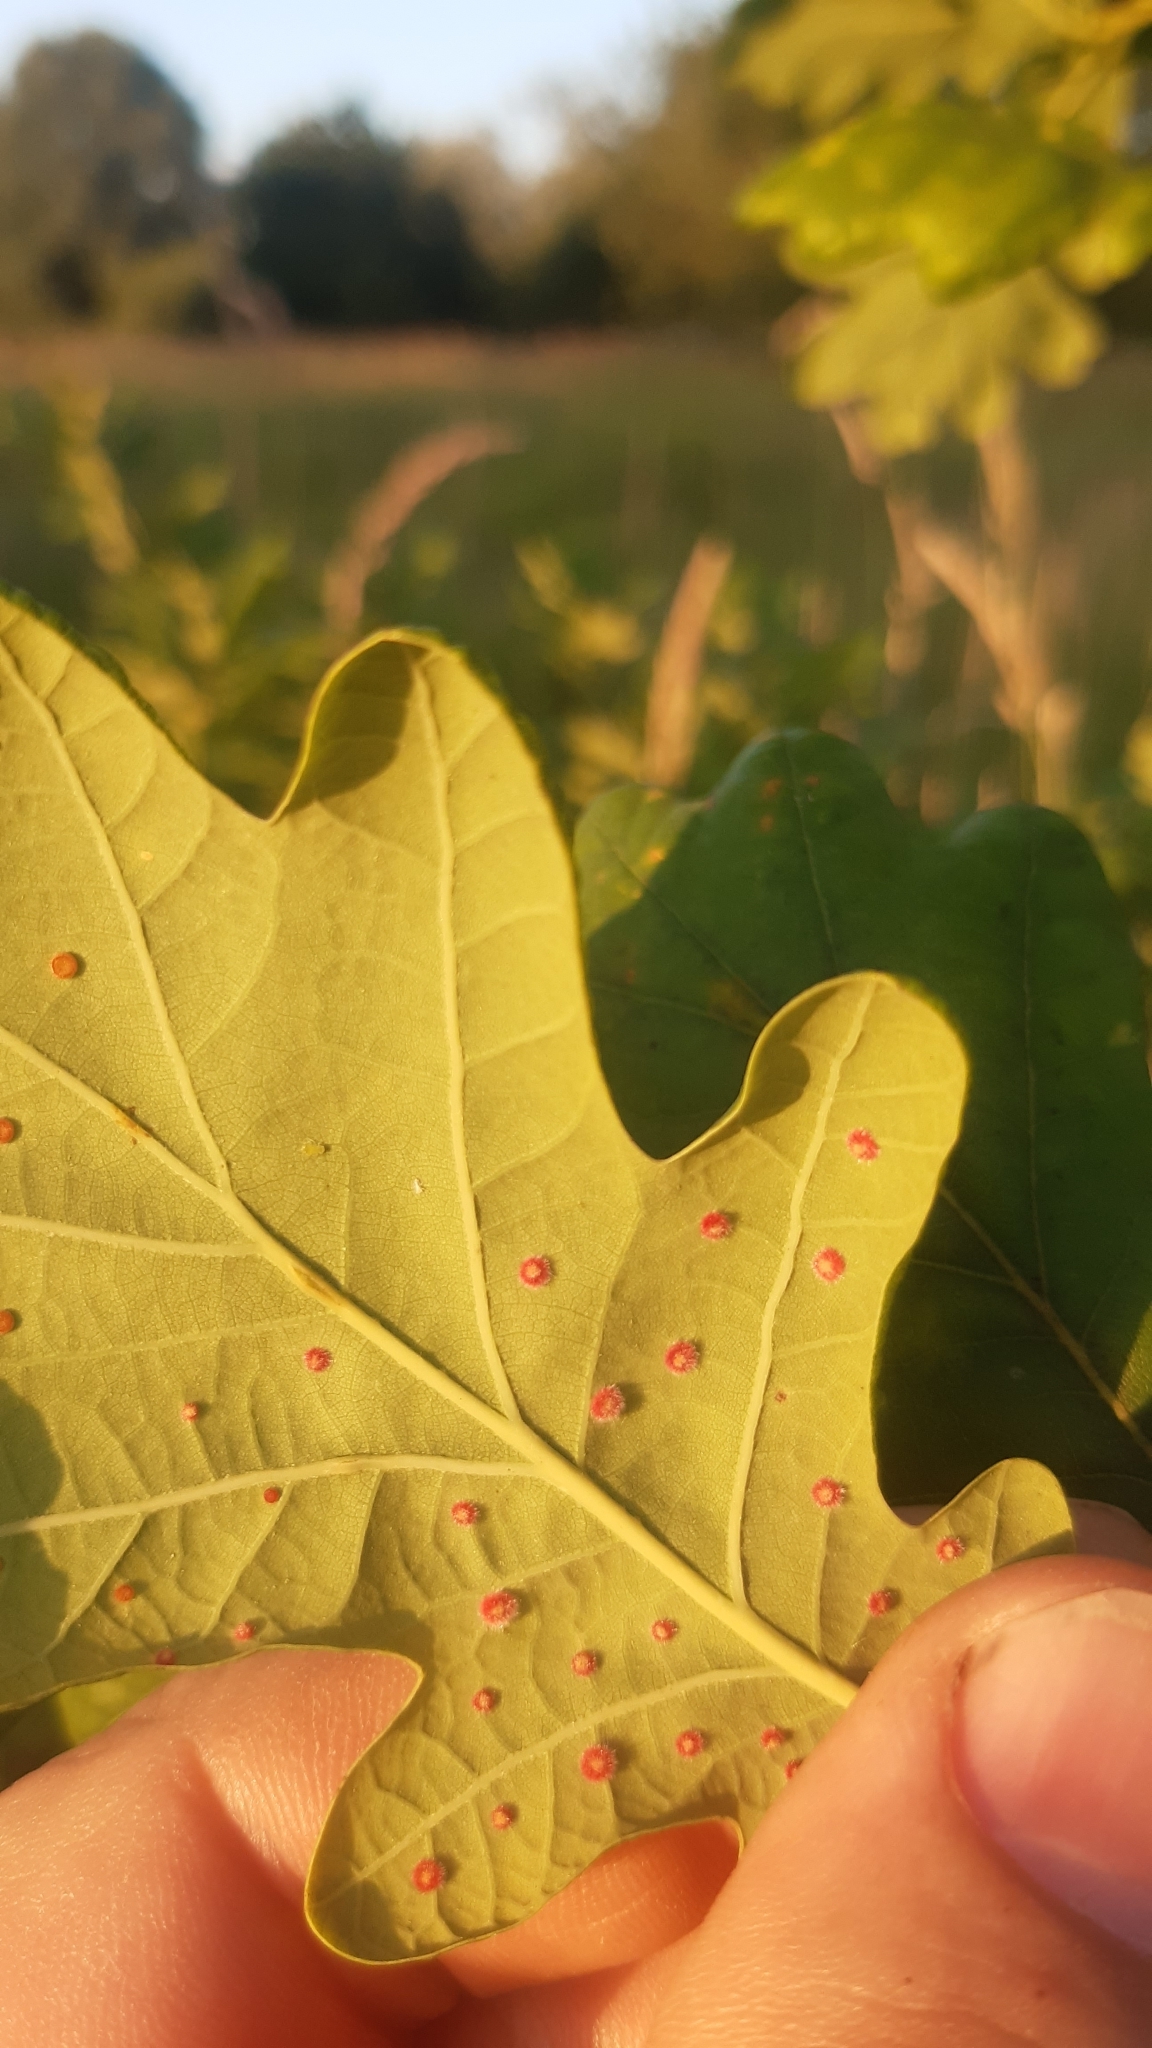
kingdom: Animalia
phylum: Arthropoda
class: Insecta
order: Hymenoptera
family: Cynipidae
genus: Neuroterus
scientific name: Neuroterus quercusbaccarum
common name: Common spangle gall
